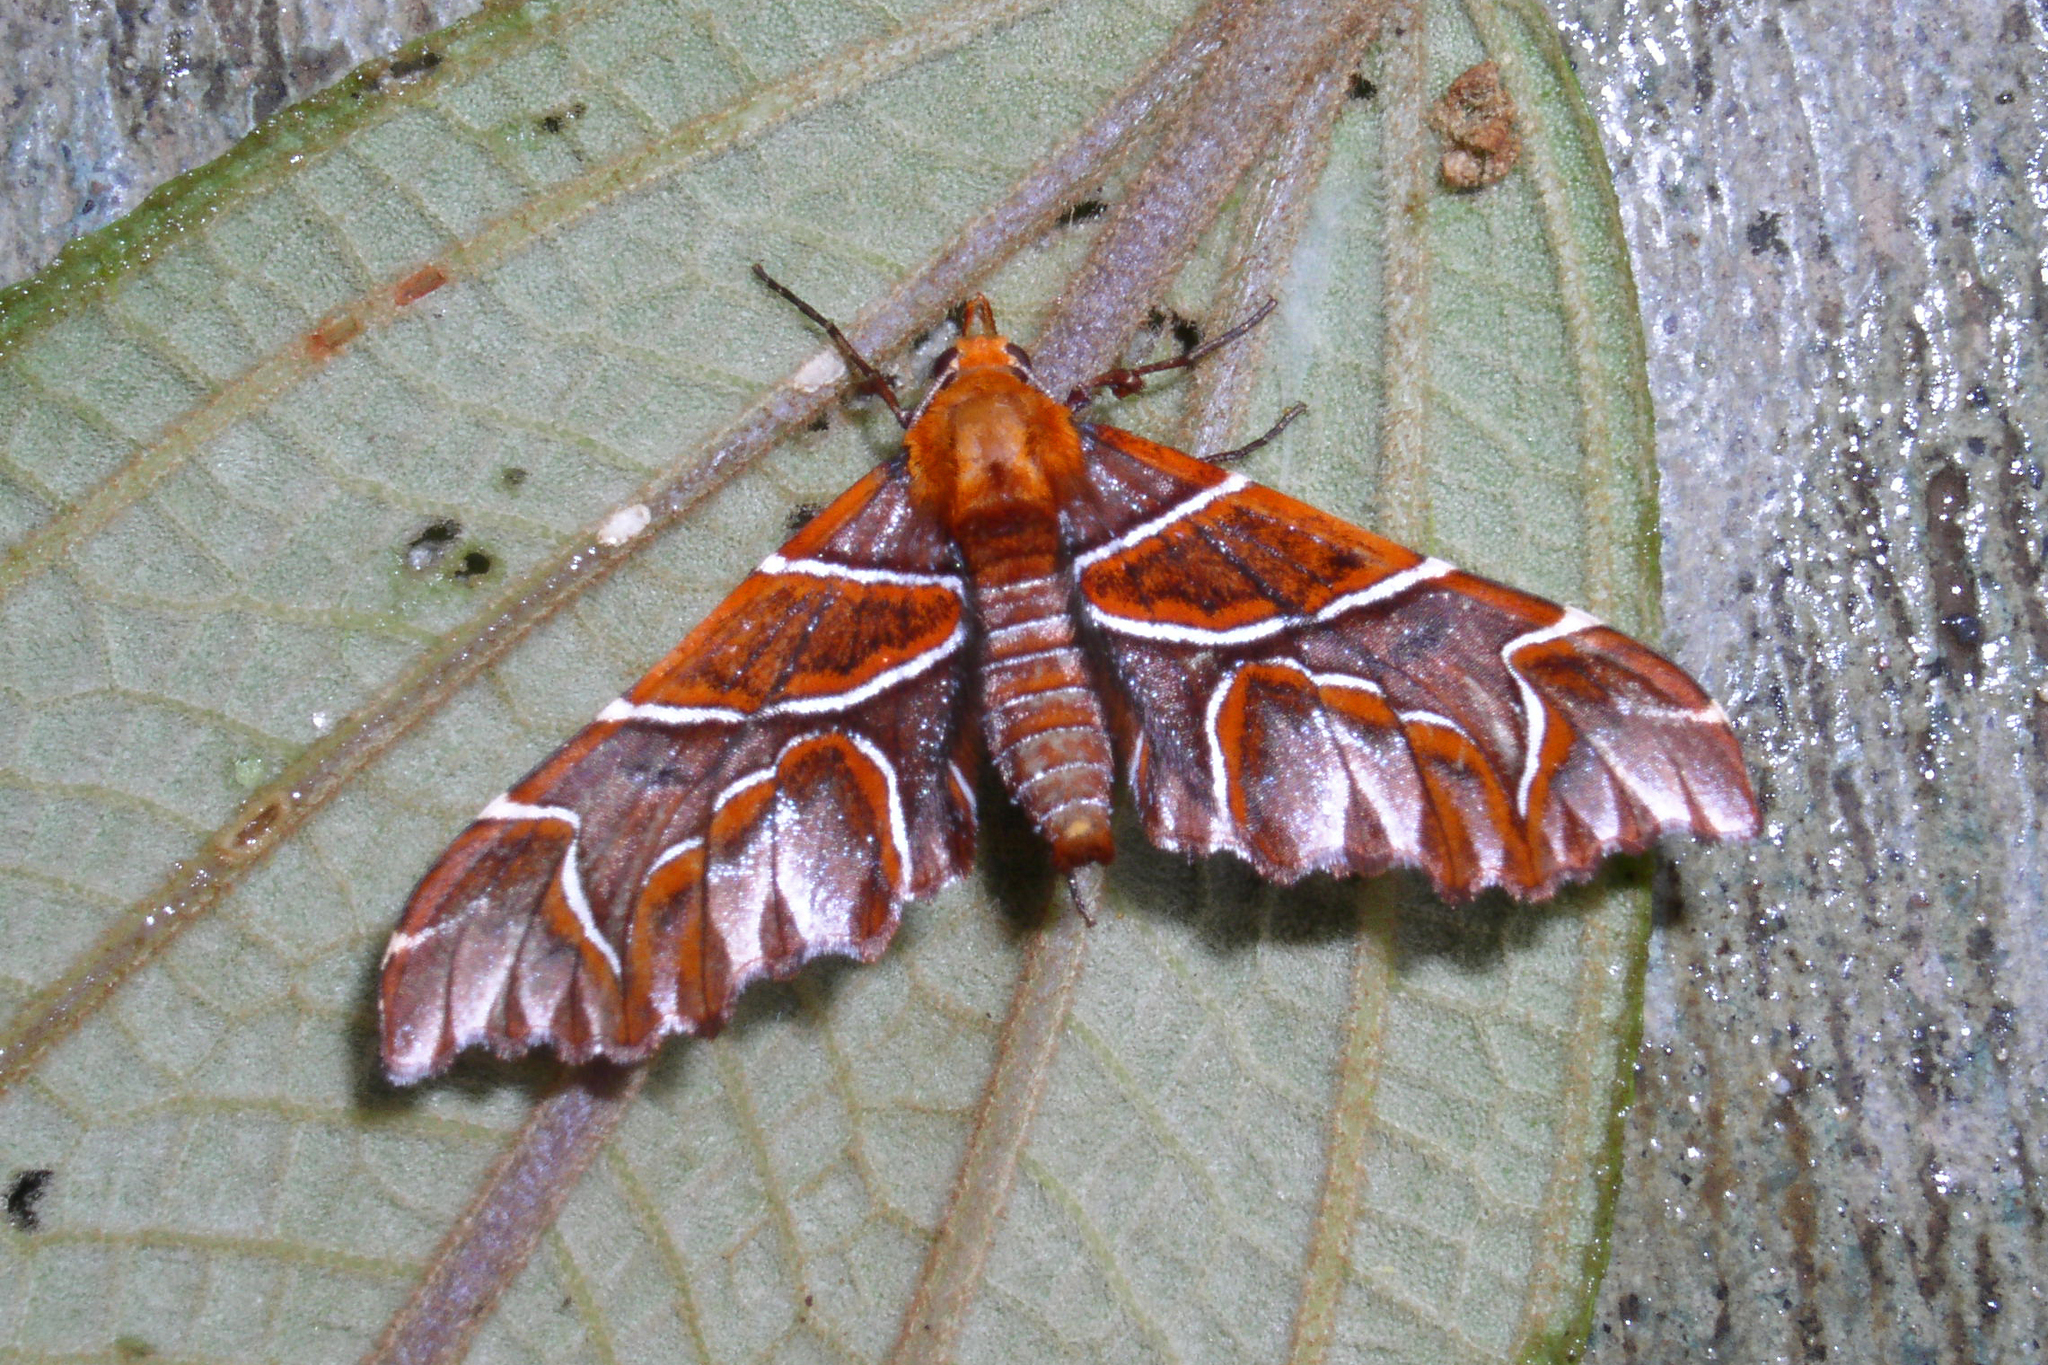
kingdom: Animalia
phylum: Arthropoda
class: Insecta
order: Lepidoptera
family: Geometridae
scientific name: Geometridae
